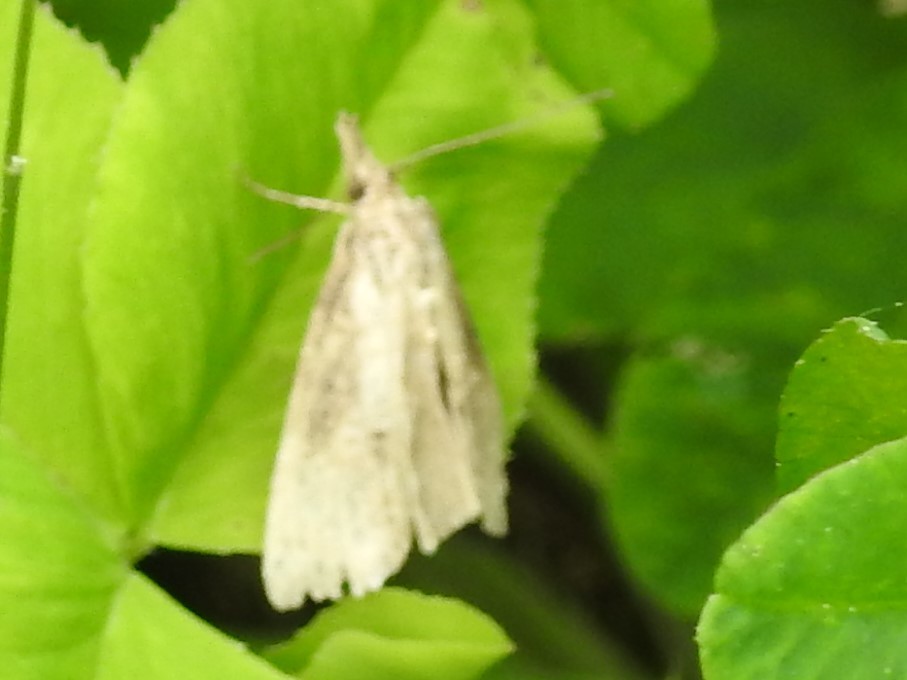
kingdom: Animalia
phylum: Arthropoda
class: Insecta
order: Lepidoptera
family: Erebidae
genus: Hypena
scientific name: Hypena scabra
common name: Green cloverworm
